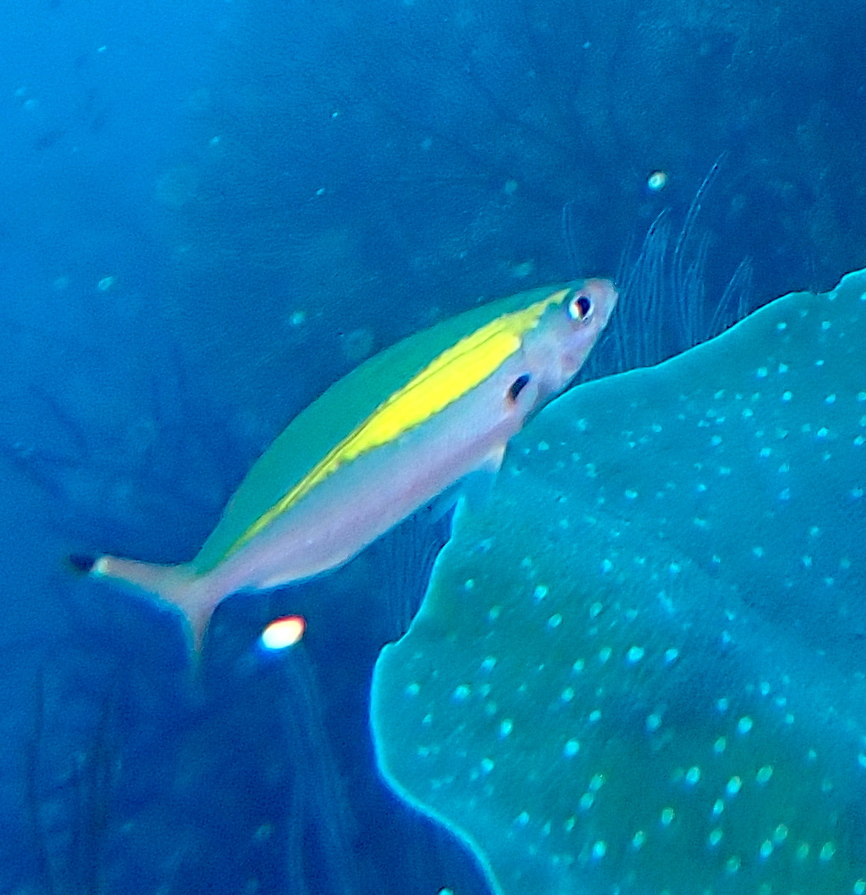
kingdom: Animalia
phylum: Chordata
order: Perciformes
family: Caesionidae
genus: Pterocaesio
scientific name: Pterocaesio lativittata
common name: Yellowstreak fusilier
